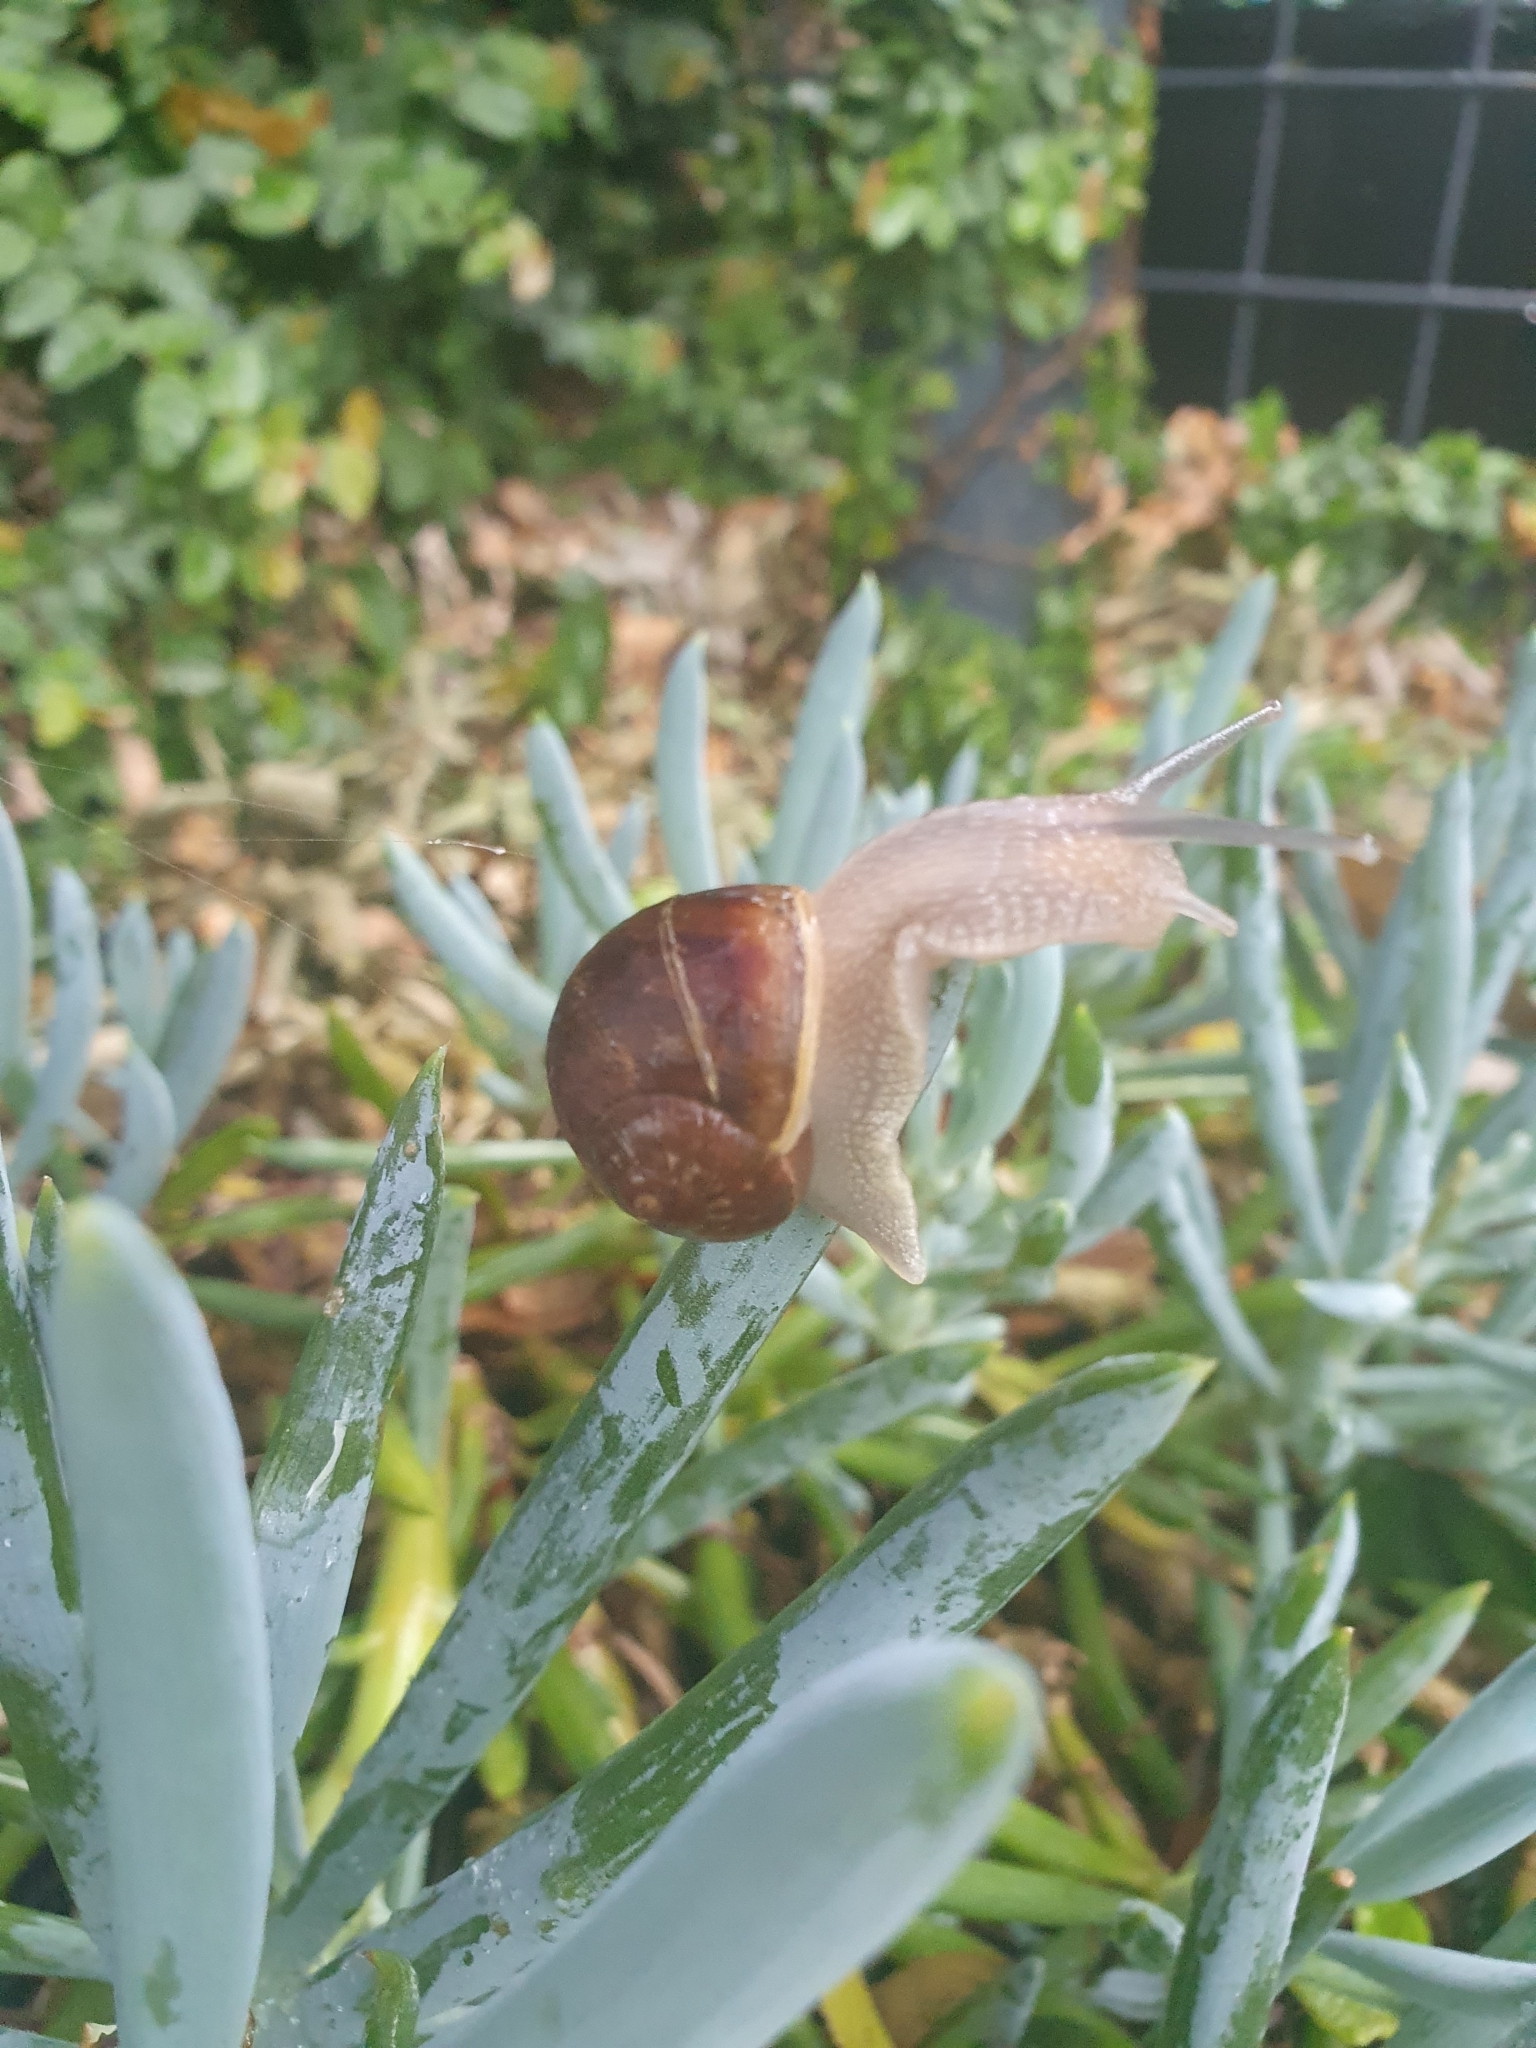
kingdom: Animalia
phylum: Mollusca
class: Gastropoda
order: Stylommatophora
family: Helicidae
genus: Cornu
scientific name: Cornu aspersum
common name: Brown garden snail
